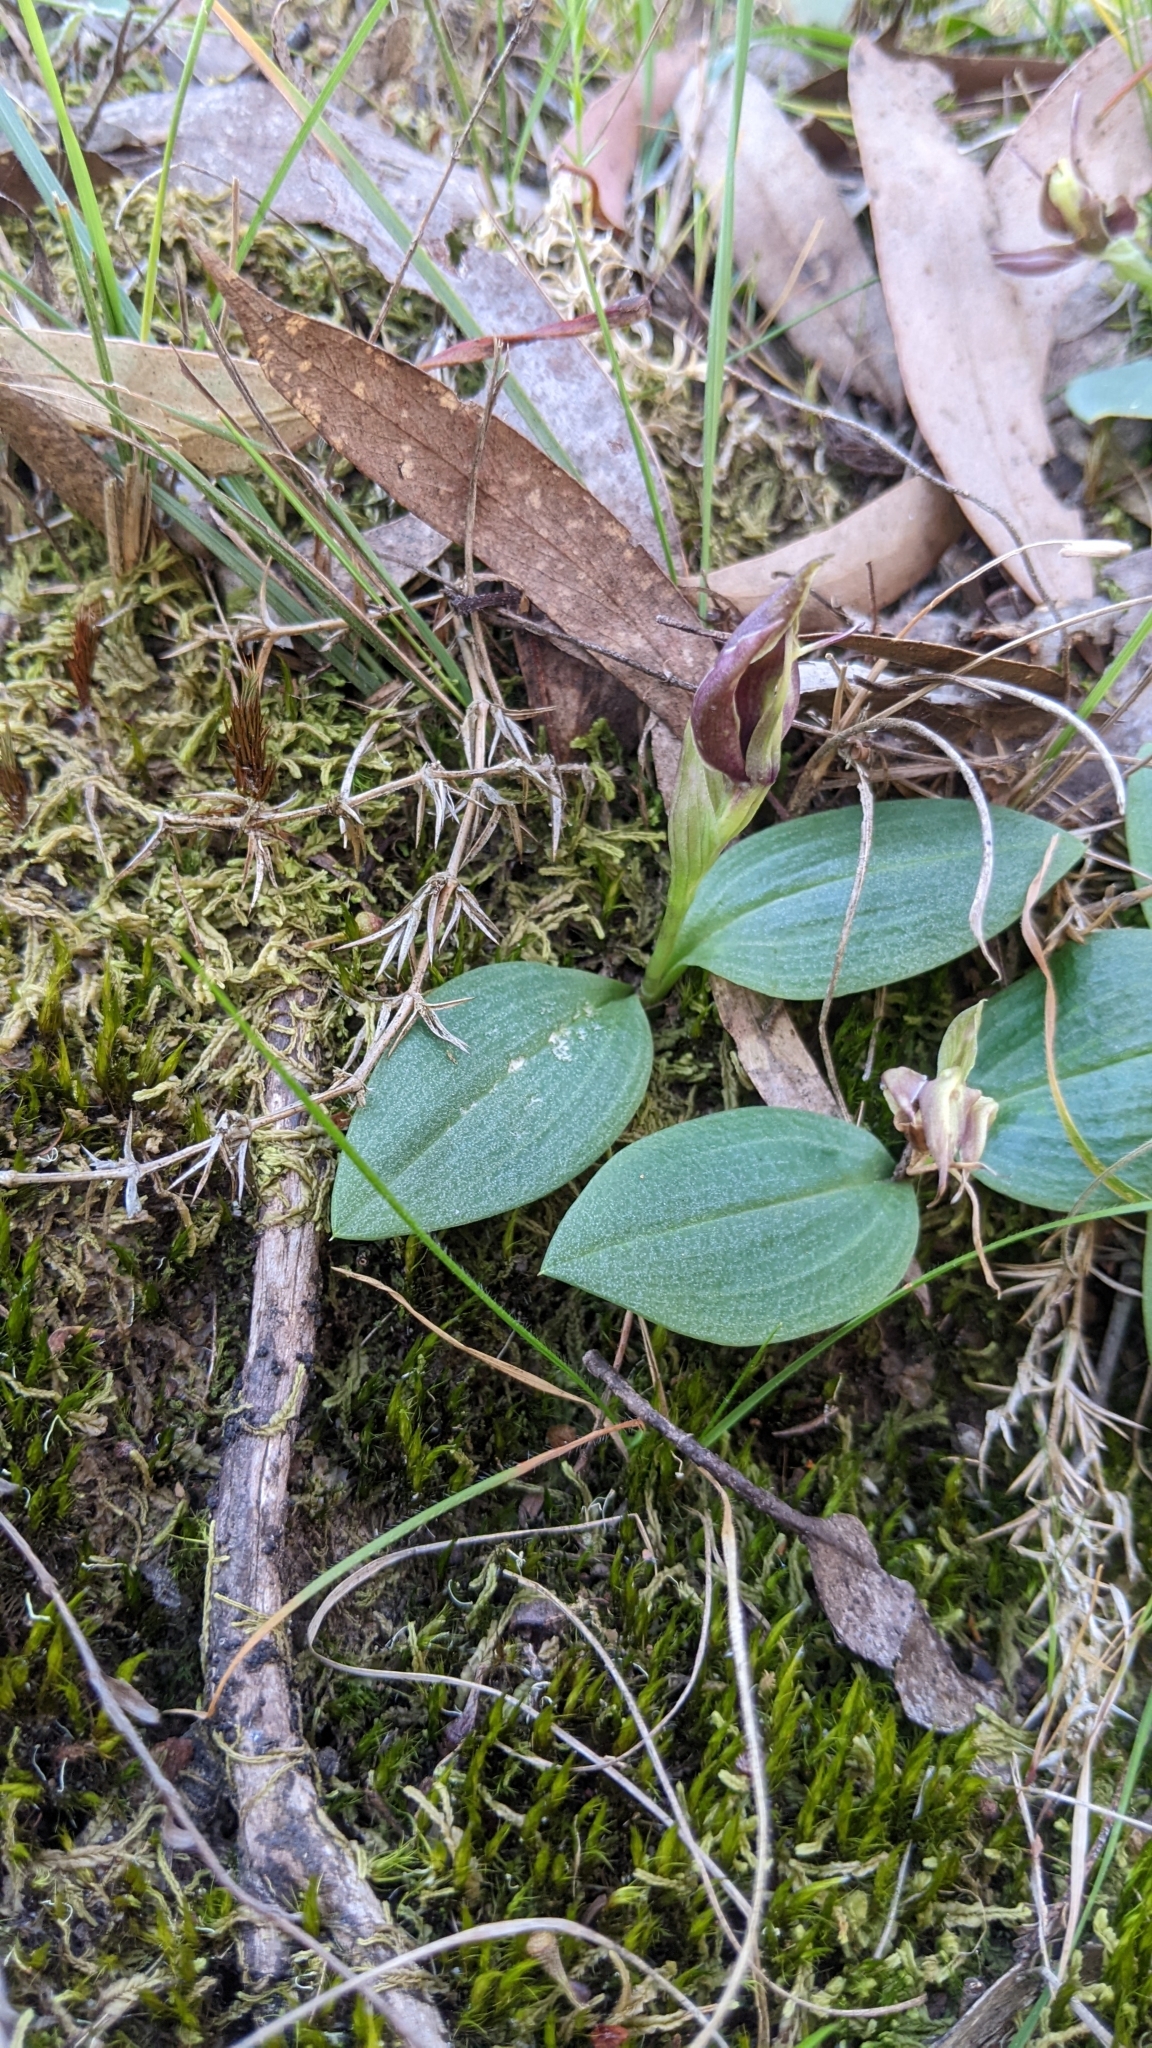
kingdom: Plantae
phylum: Tracheophyta
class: Liliopsida
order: Asparagales
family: Orchidaceae
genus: Chiloglottis
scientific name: Chiloglottis valida
